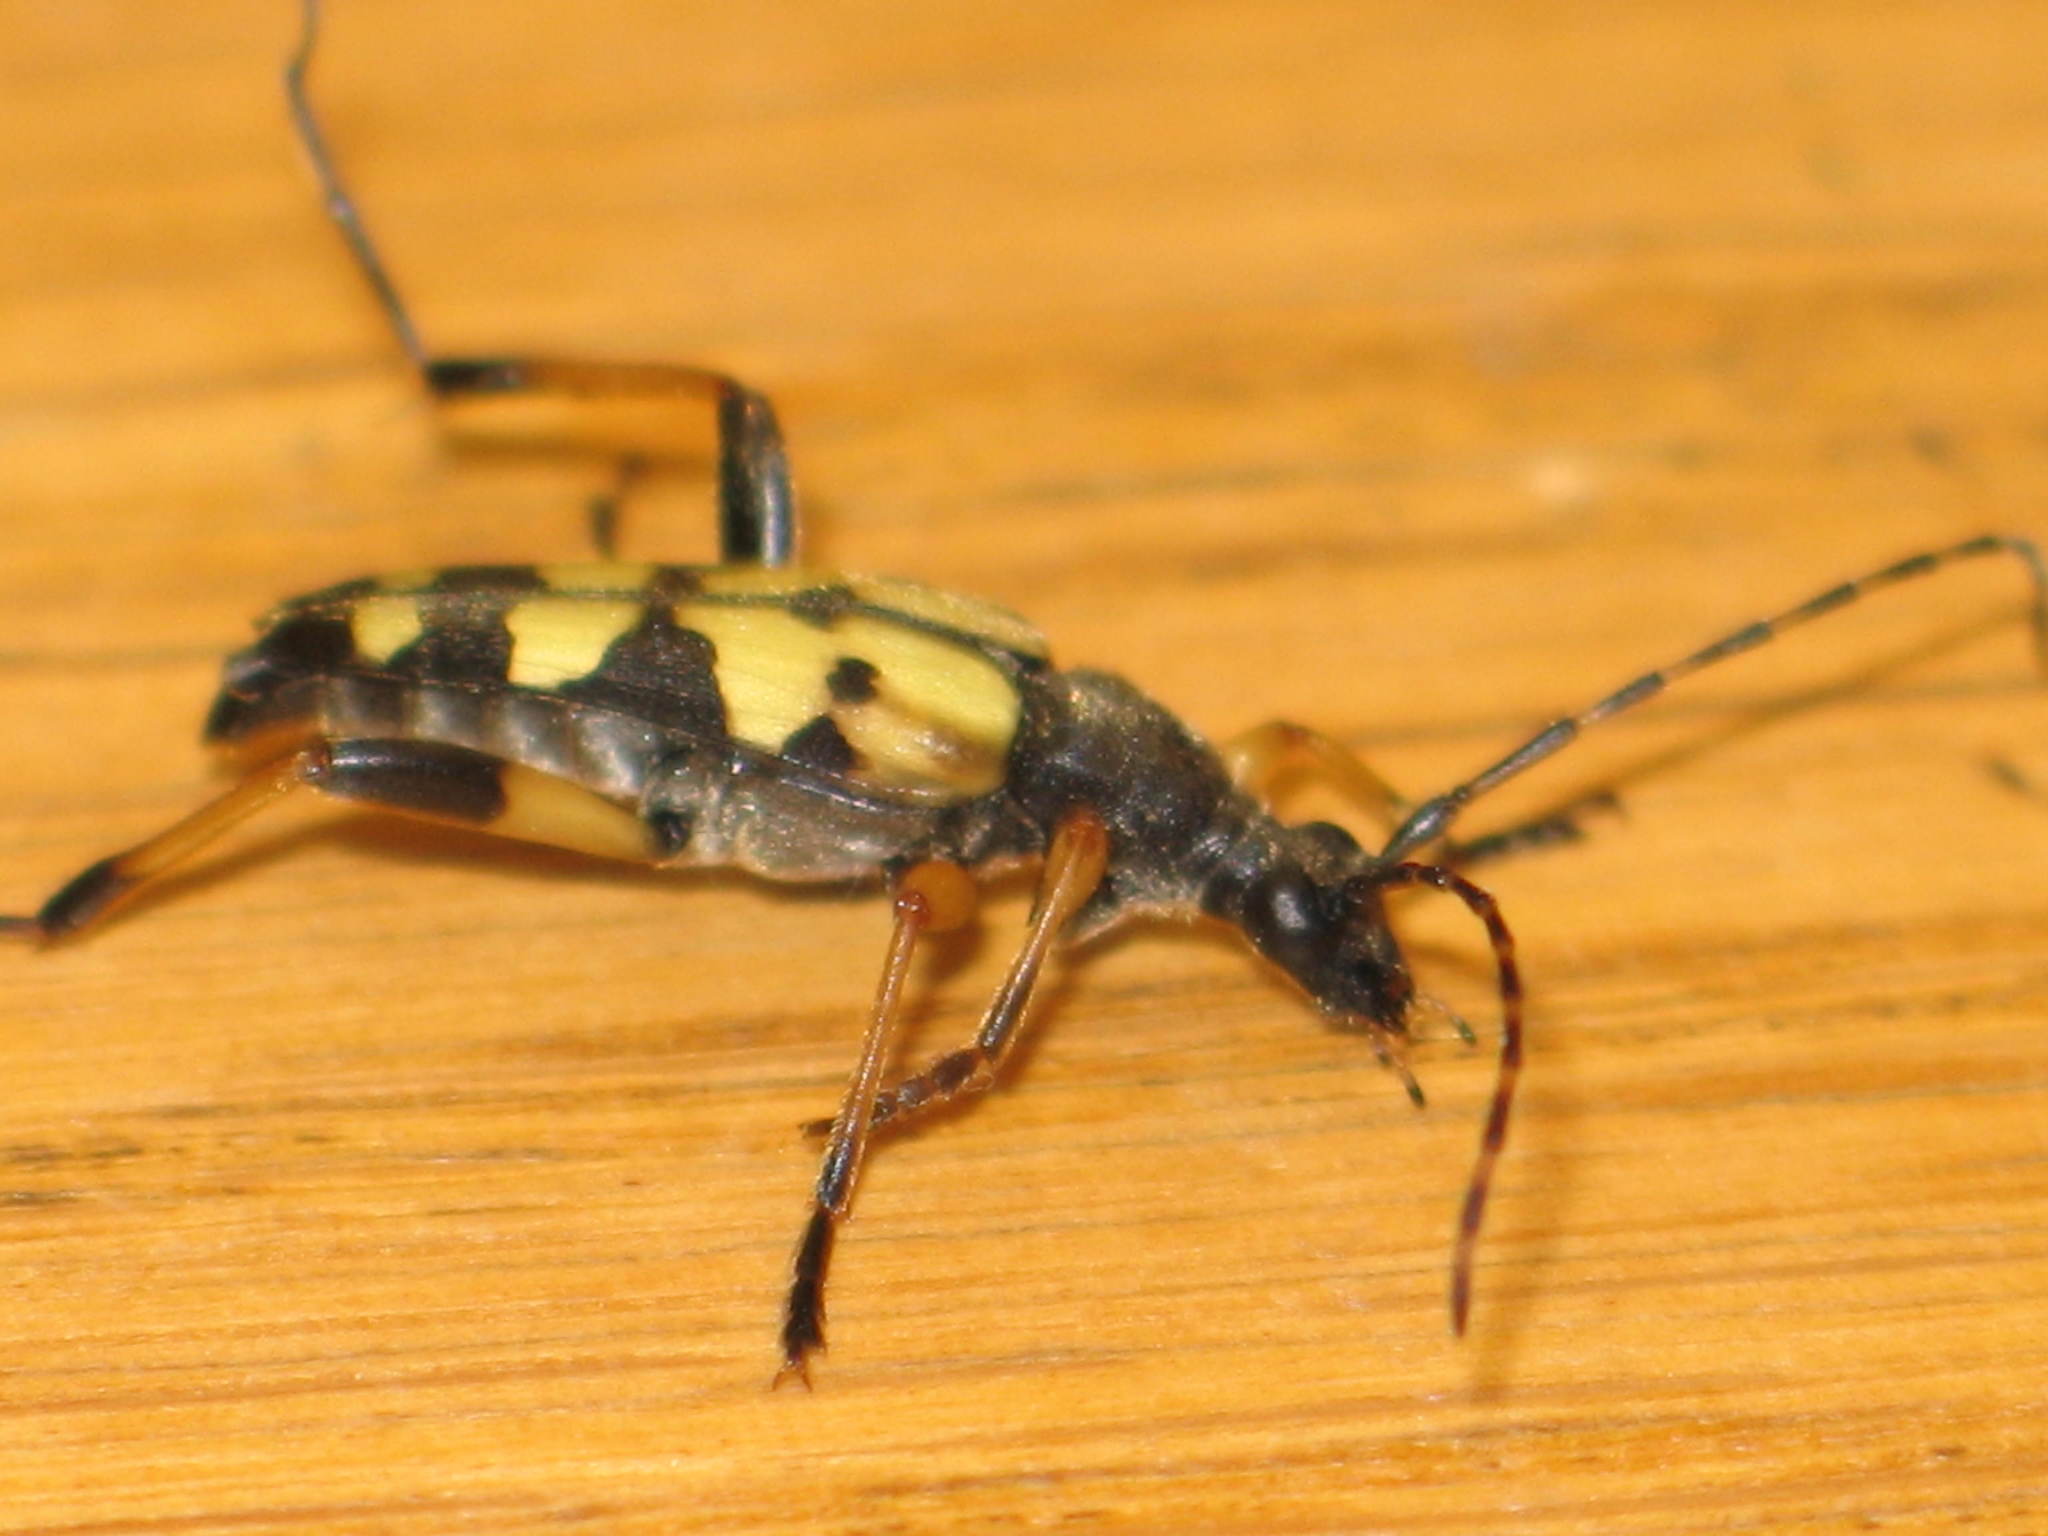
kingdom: Animalia
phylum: Arthropoda
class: Insecta
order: Coleoptera
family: Cerambycidae
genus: Rutpela
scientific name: Rutpela maculata
